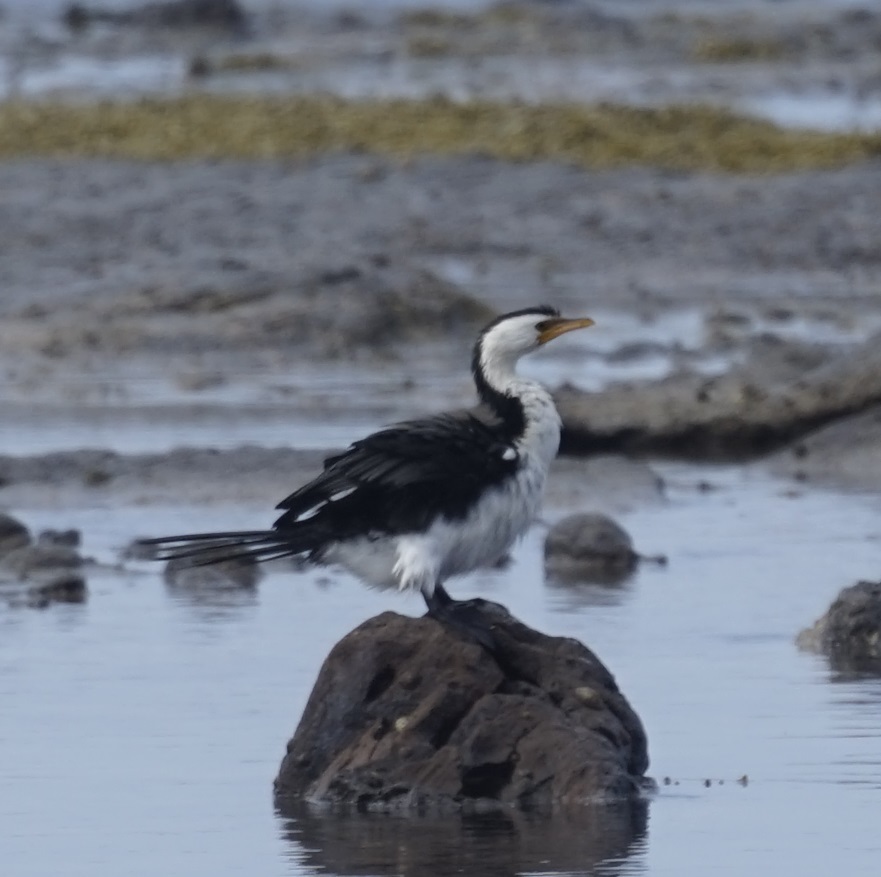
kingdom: Animalia
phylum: Chordata
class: Aves
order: Suliformes
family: Phalacrocoracidae
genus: Microcarbo
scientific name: Microcarbo melanoleucos
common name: Little pied cormorant
